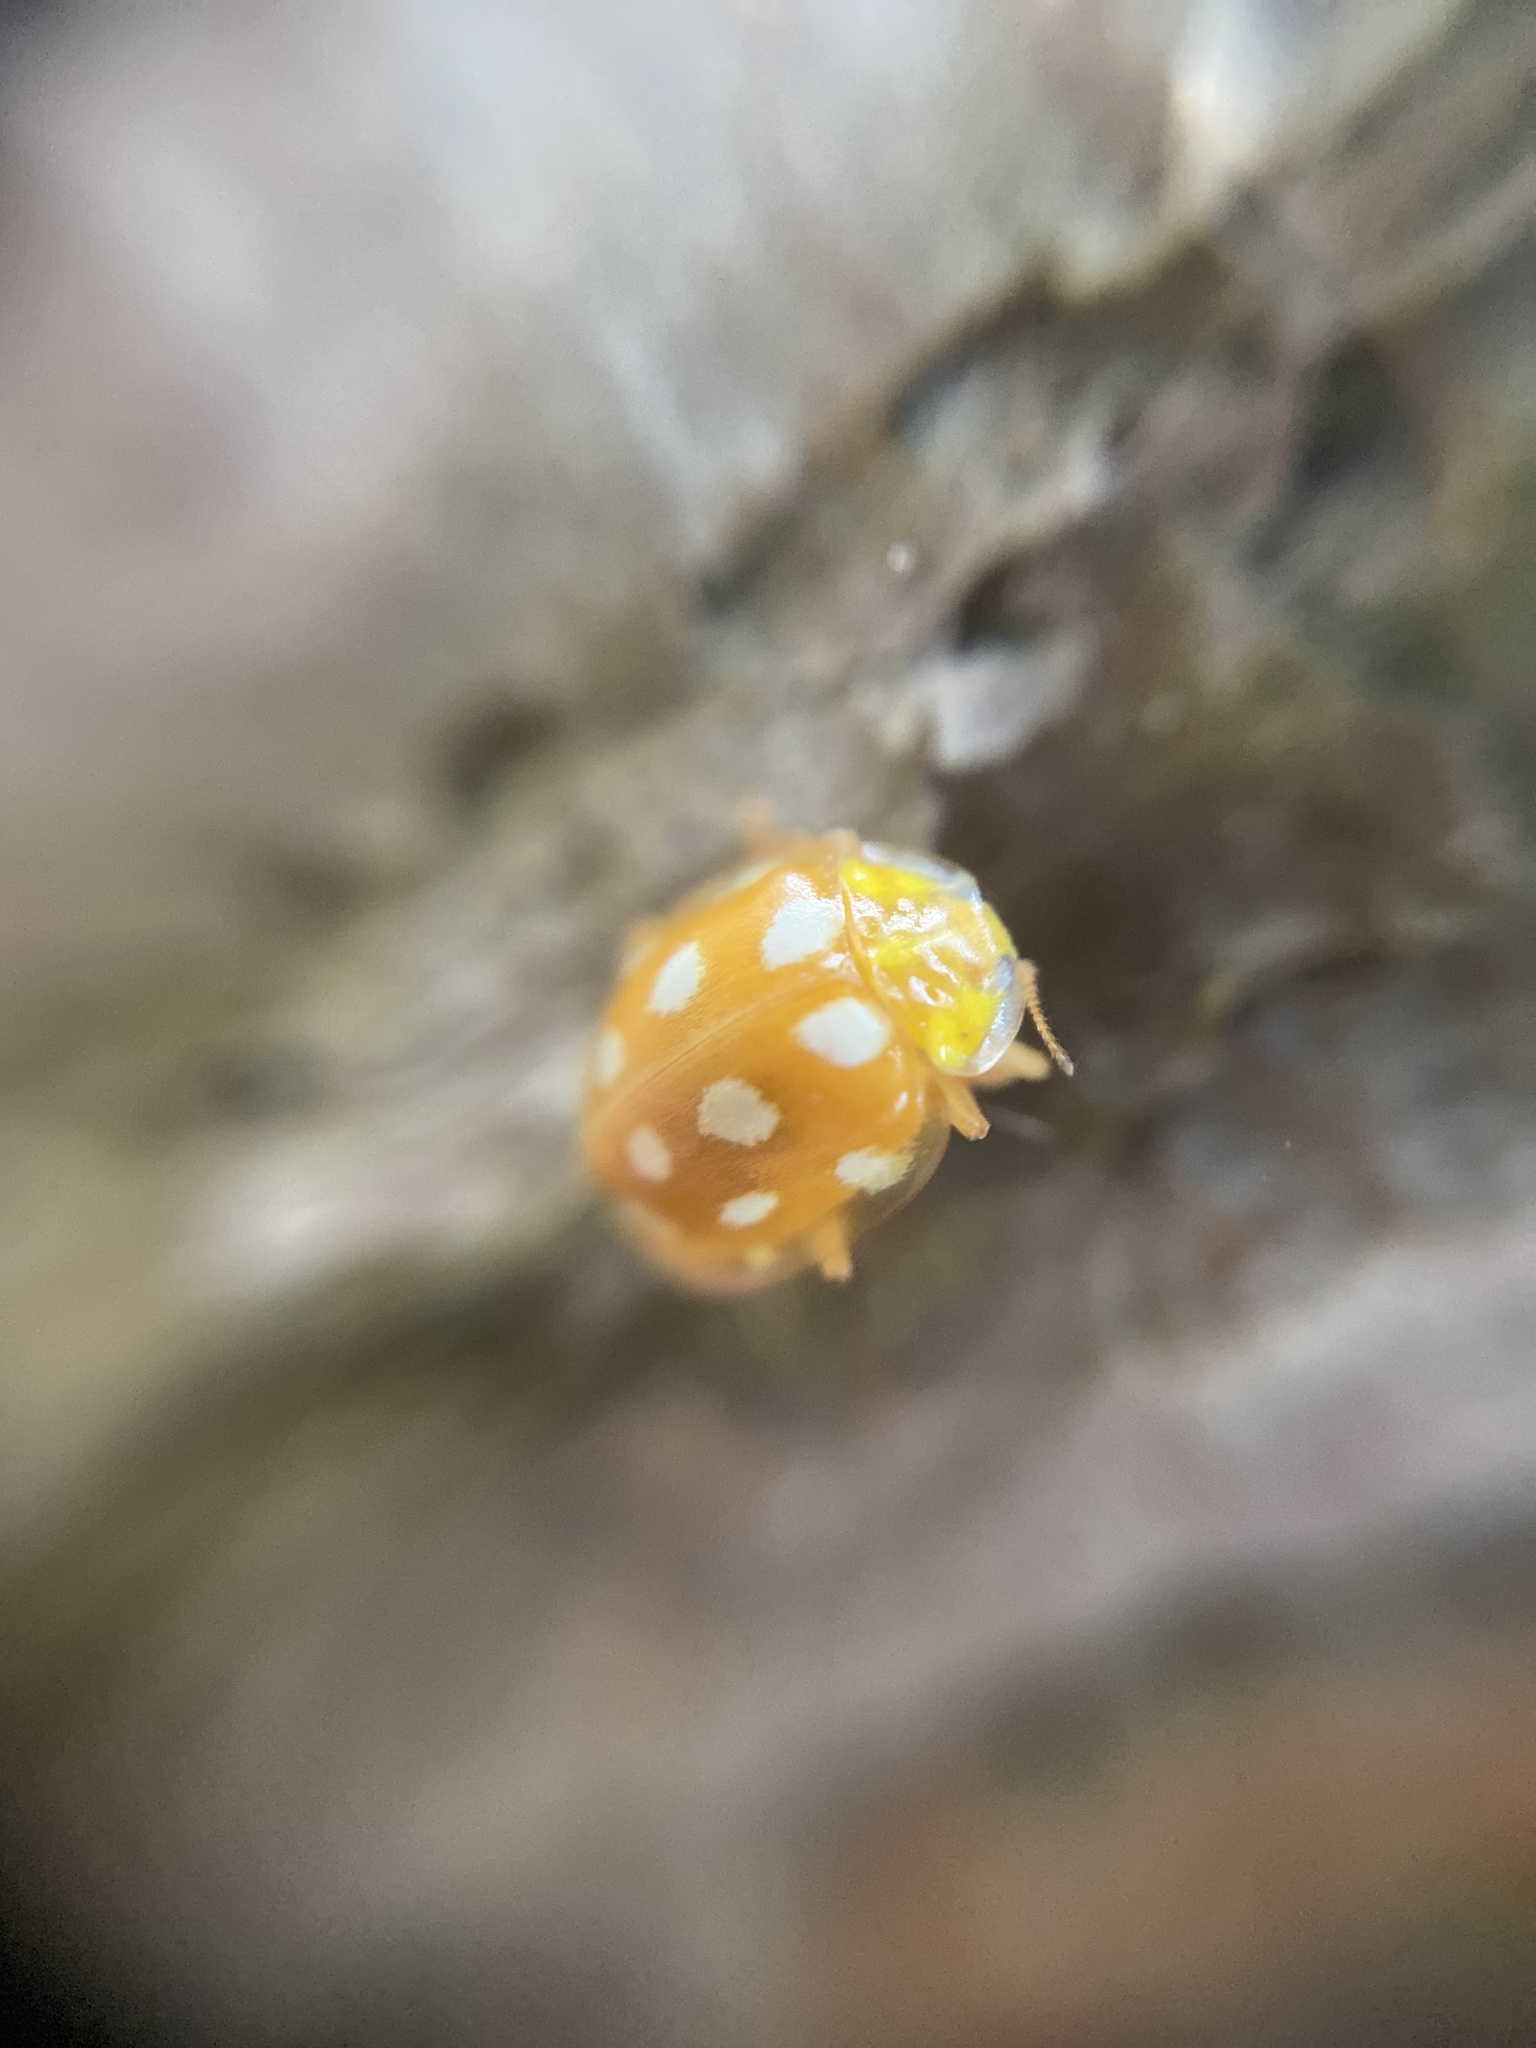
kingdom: Animalia
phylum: Arthropoda
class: Insecta
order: Coleoptera
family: Coccinellidae
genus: Halyzia
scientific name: Halyzia sedecimguttata
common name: Orange ladybird
